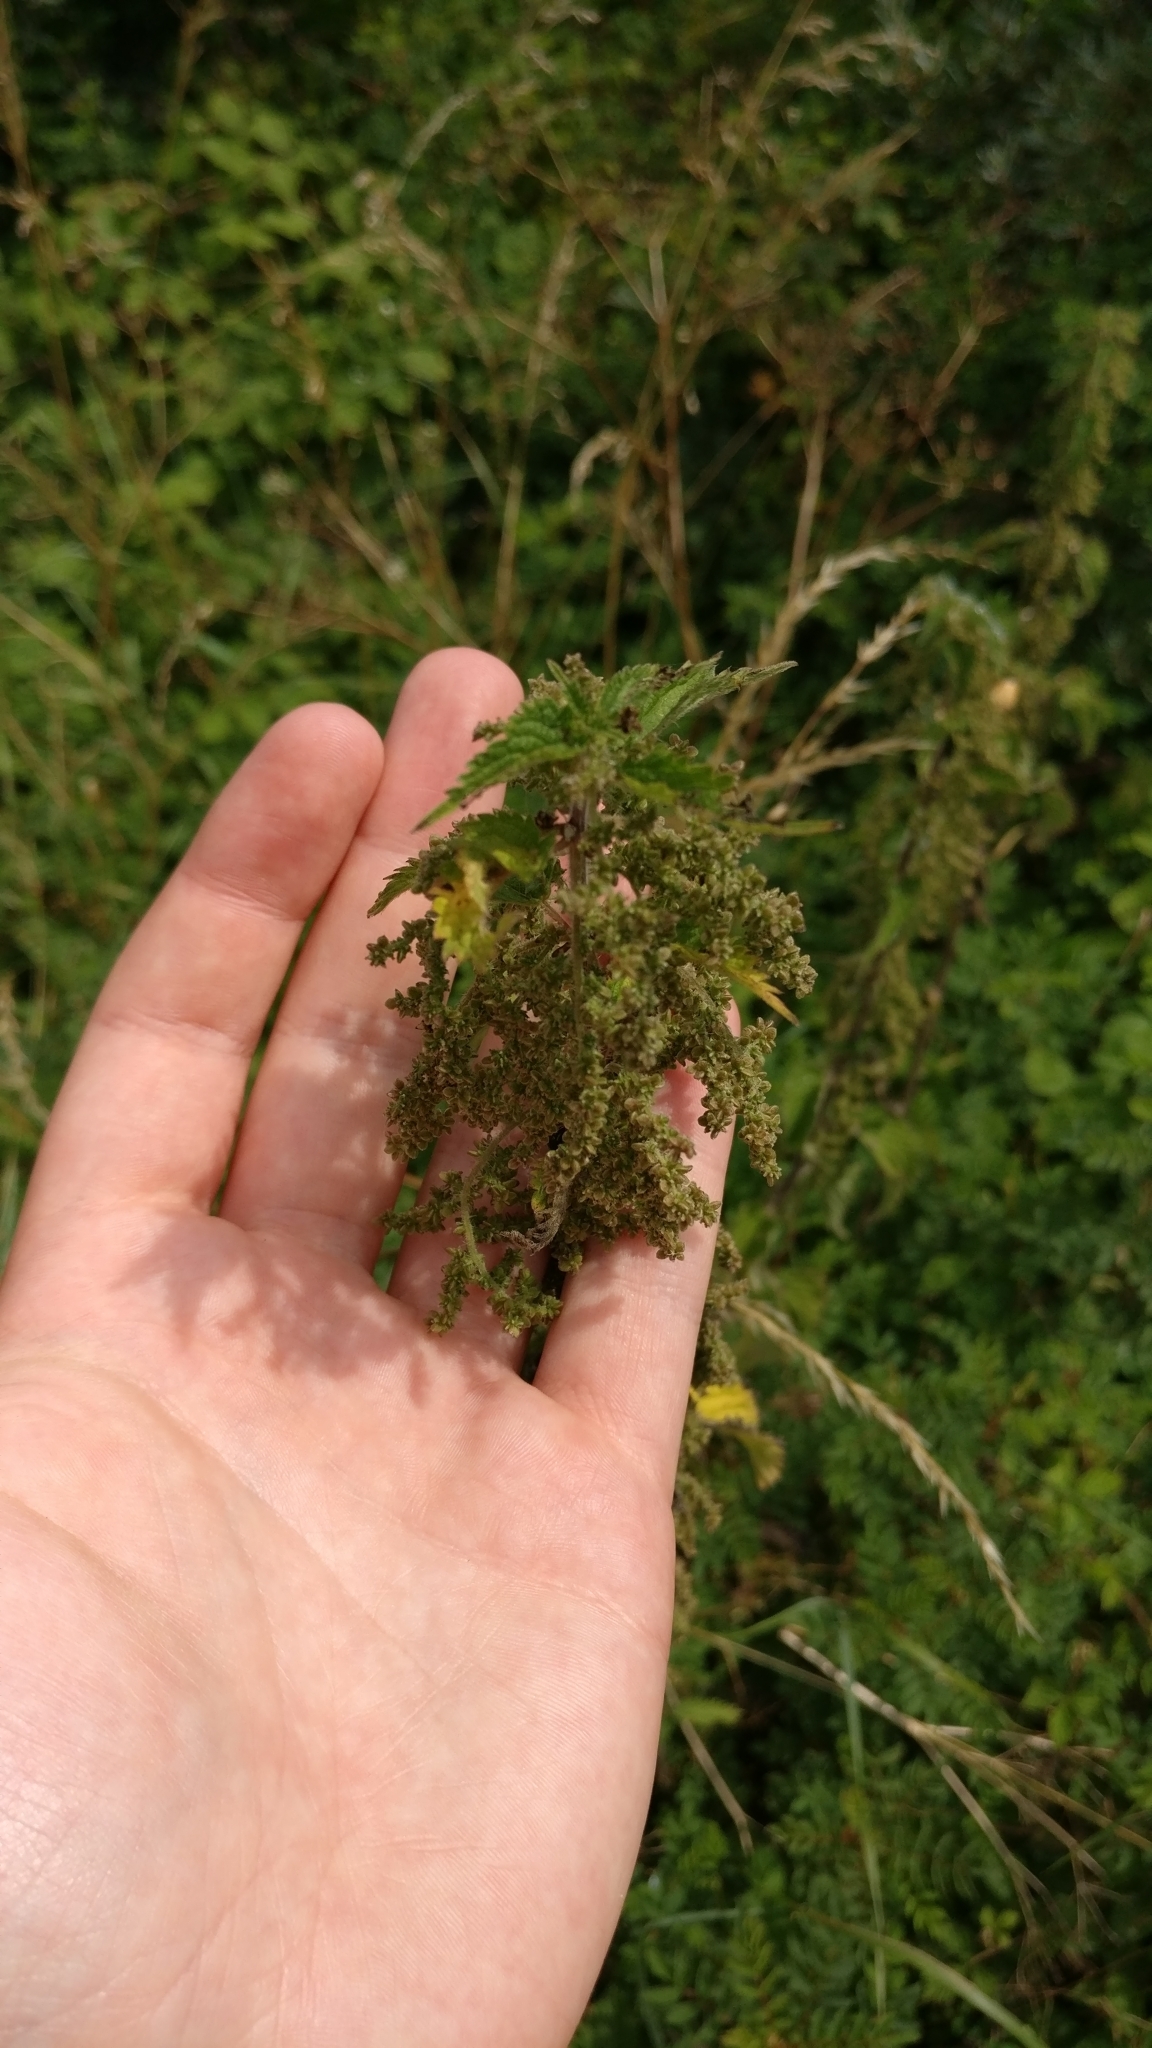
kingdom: Plantae
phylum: Tracheophyta
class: Magnoliopsida
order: Rosales
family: Urticaceae
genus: Urtica
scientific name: Urtica dioica
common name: Common nettle
